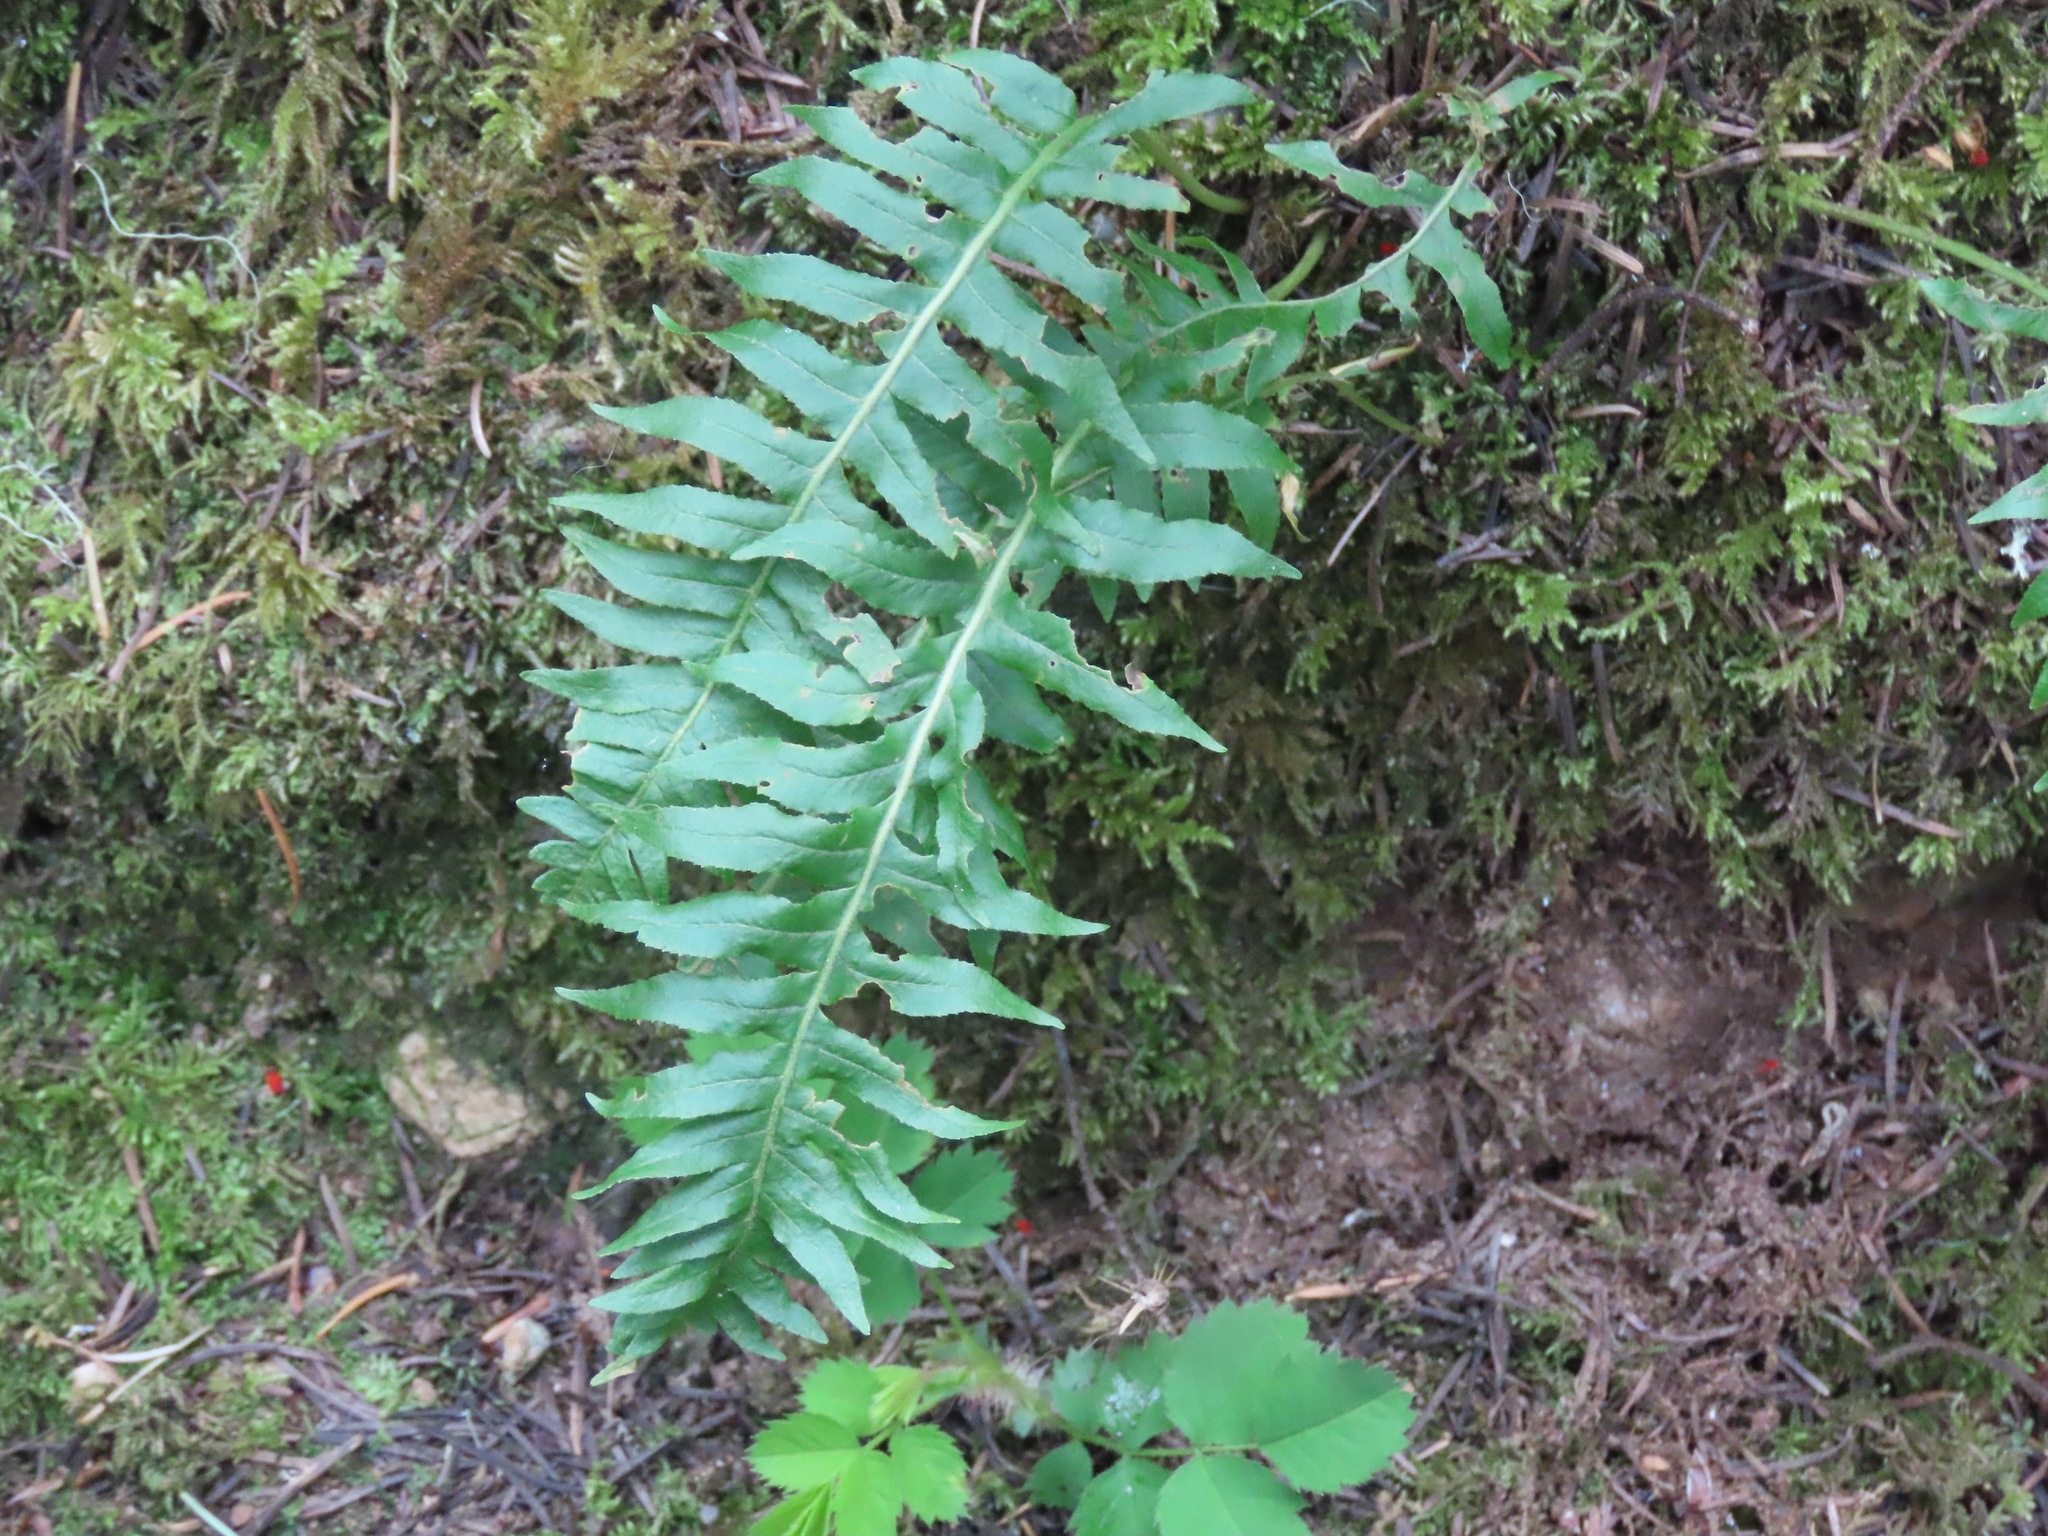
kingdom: Plantae
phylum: Tracheophyta
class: Polypodiopsida
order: Polypodiales
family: Polypodiaceae
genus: Polypodium
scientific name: Polypodium glycyrrhiza
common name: Licorice fern
